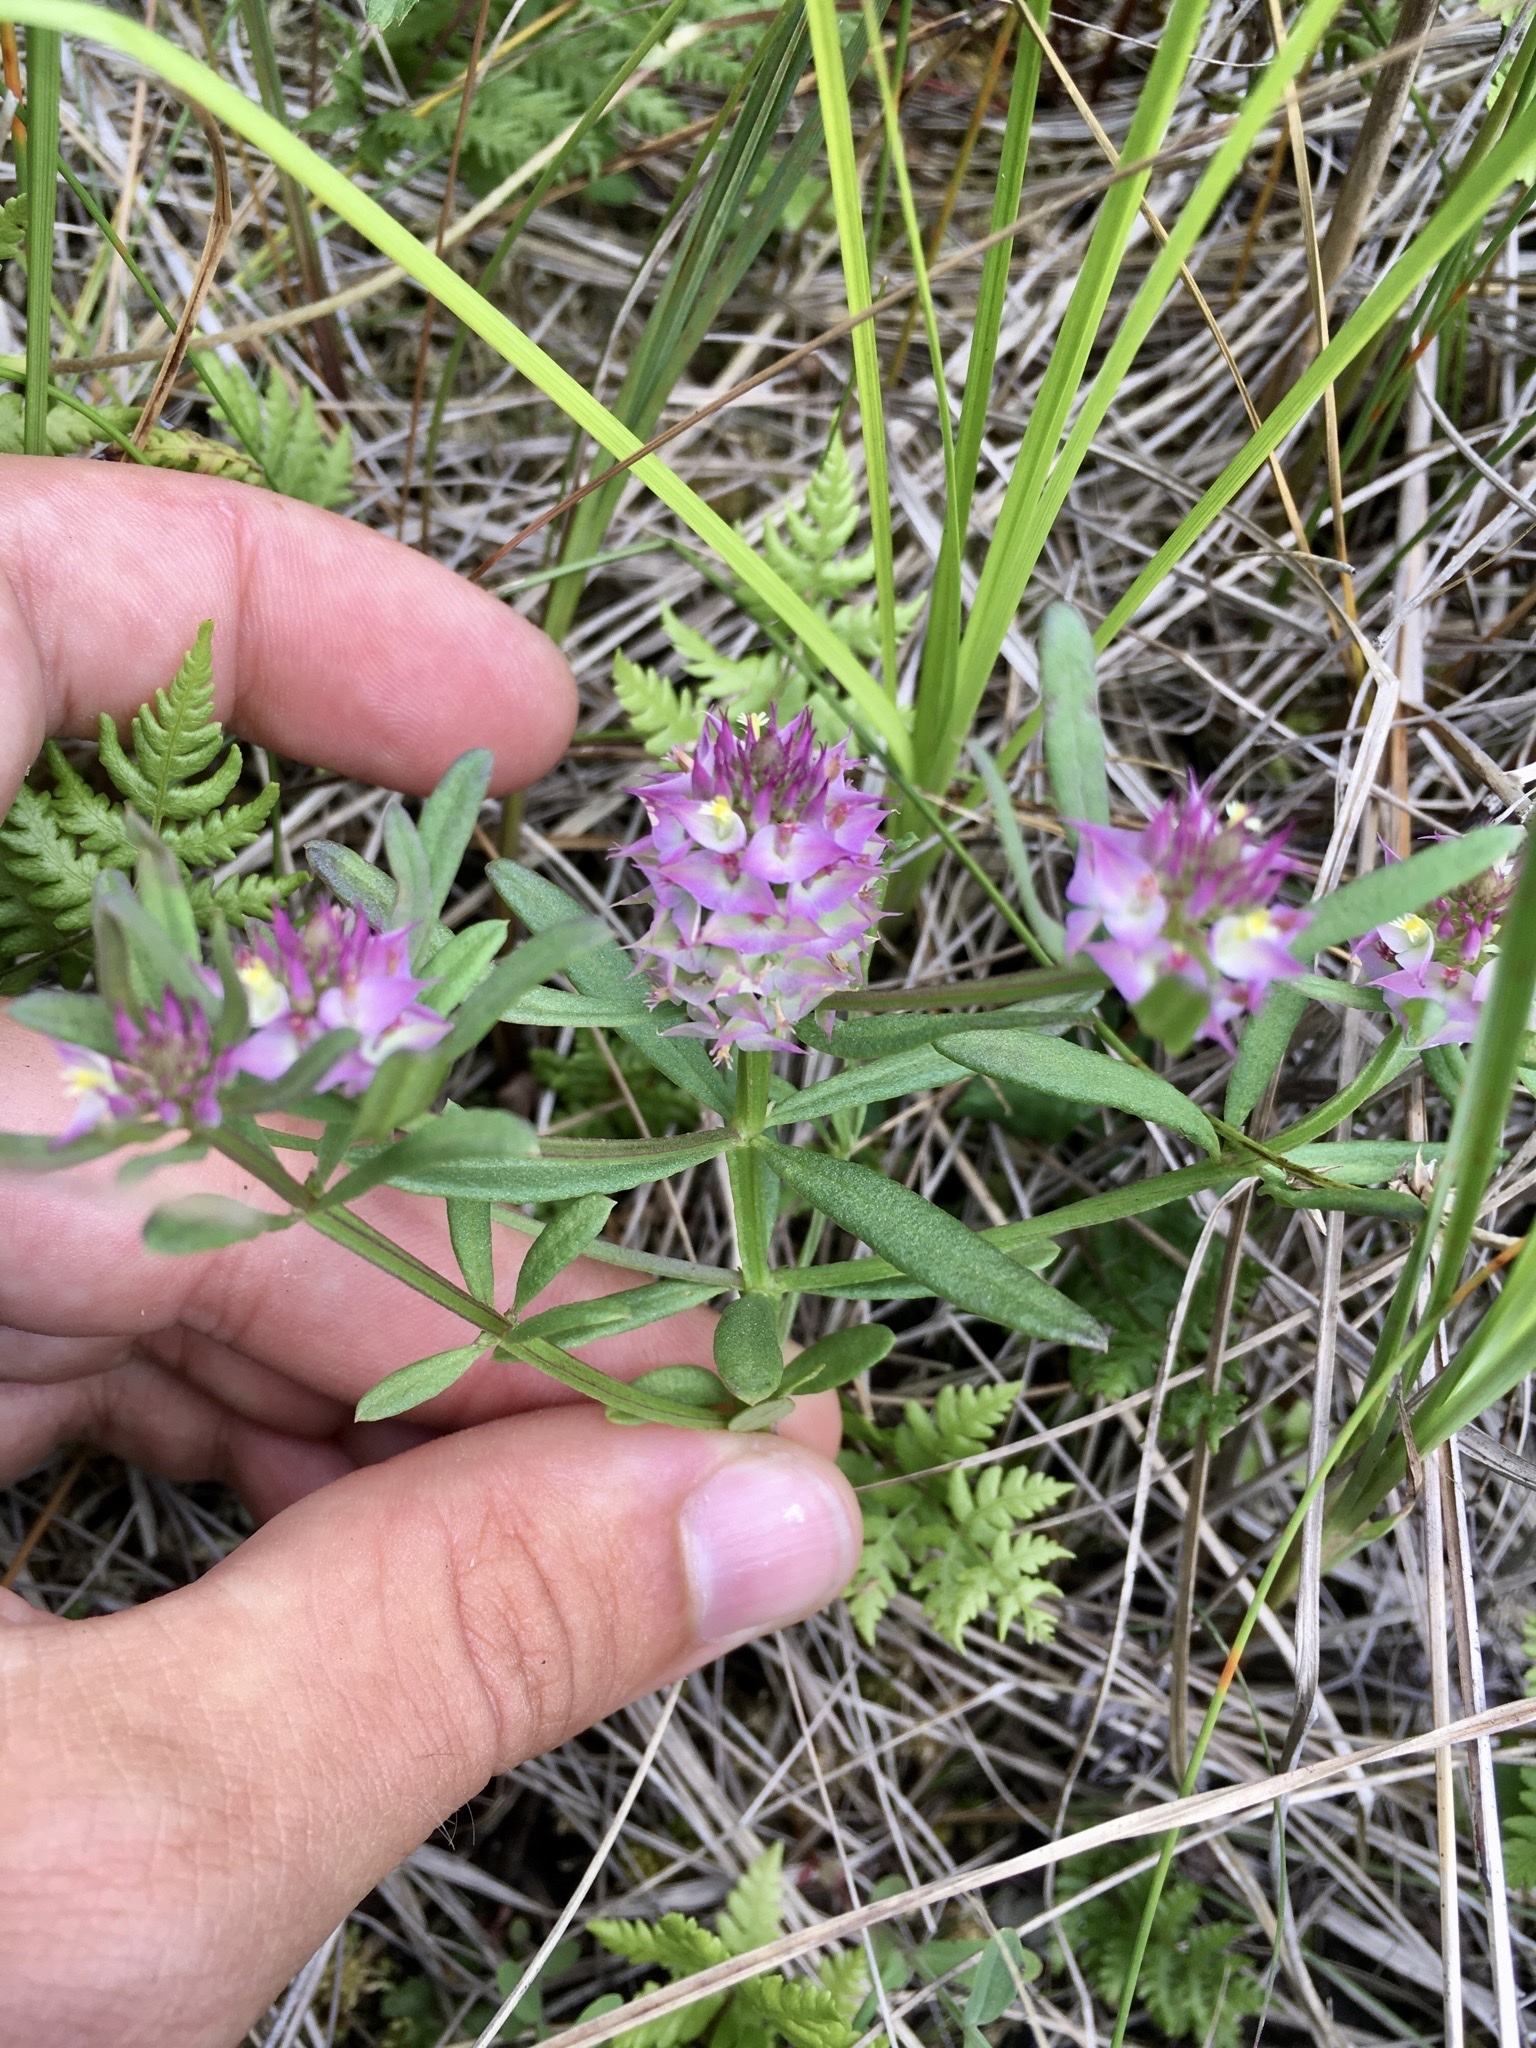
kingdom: Plantae
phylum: Tracheophyta
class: Magnoliopsida
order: Fabales
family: Polygalaceae
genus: Polygala
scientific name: Polygala cruciata
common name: Drumheads
